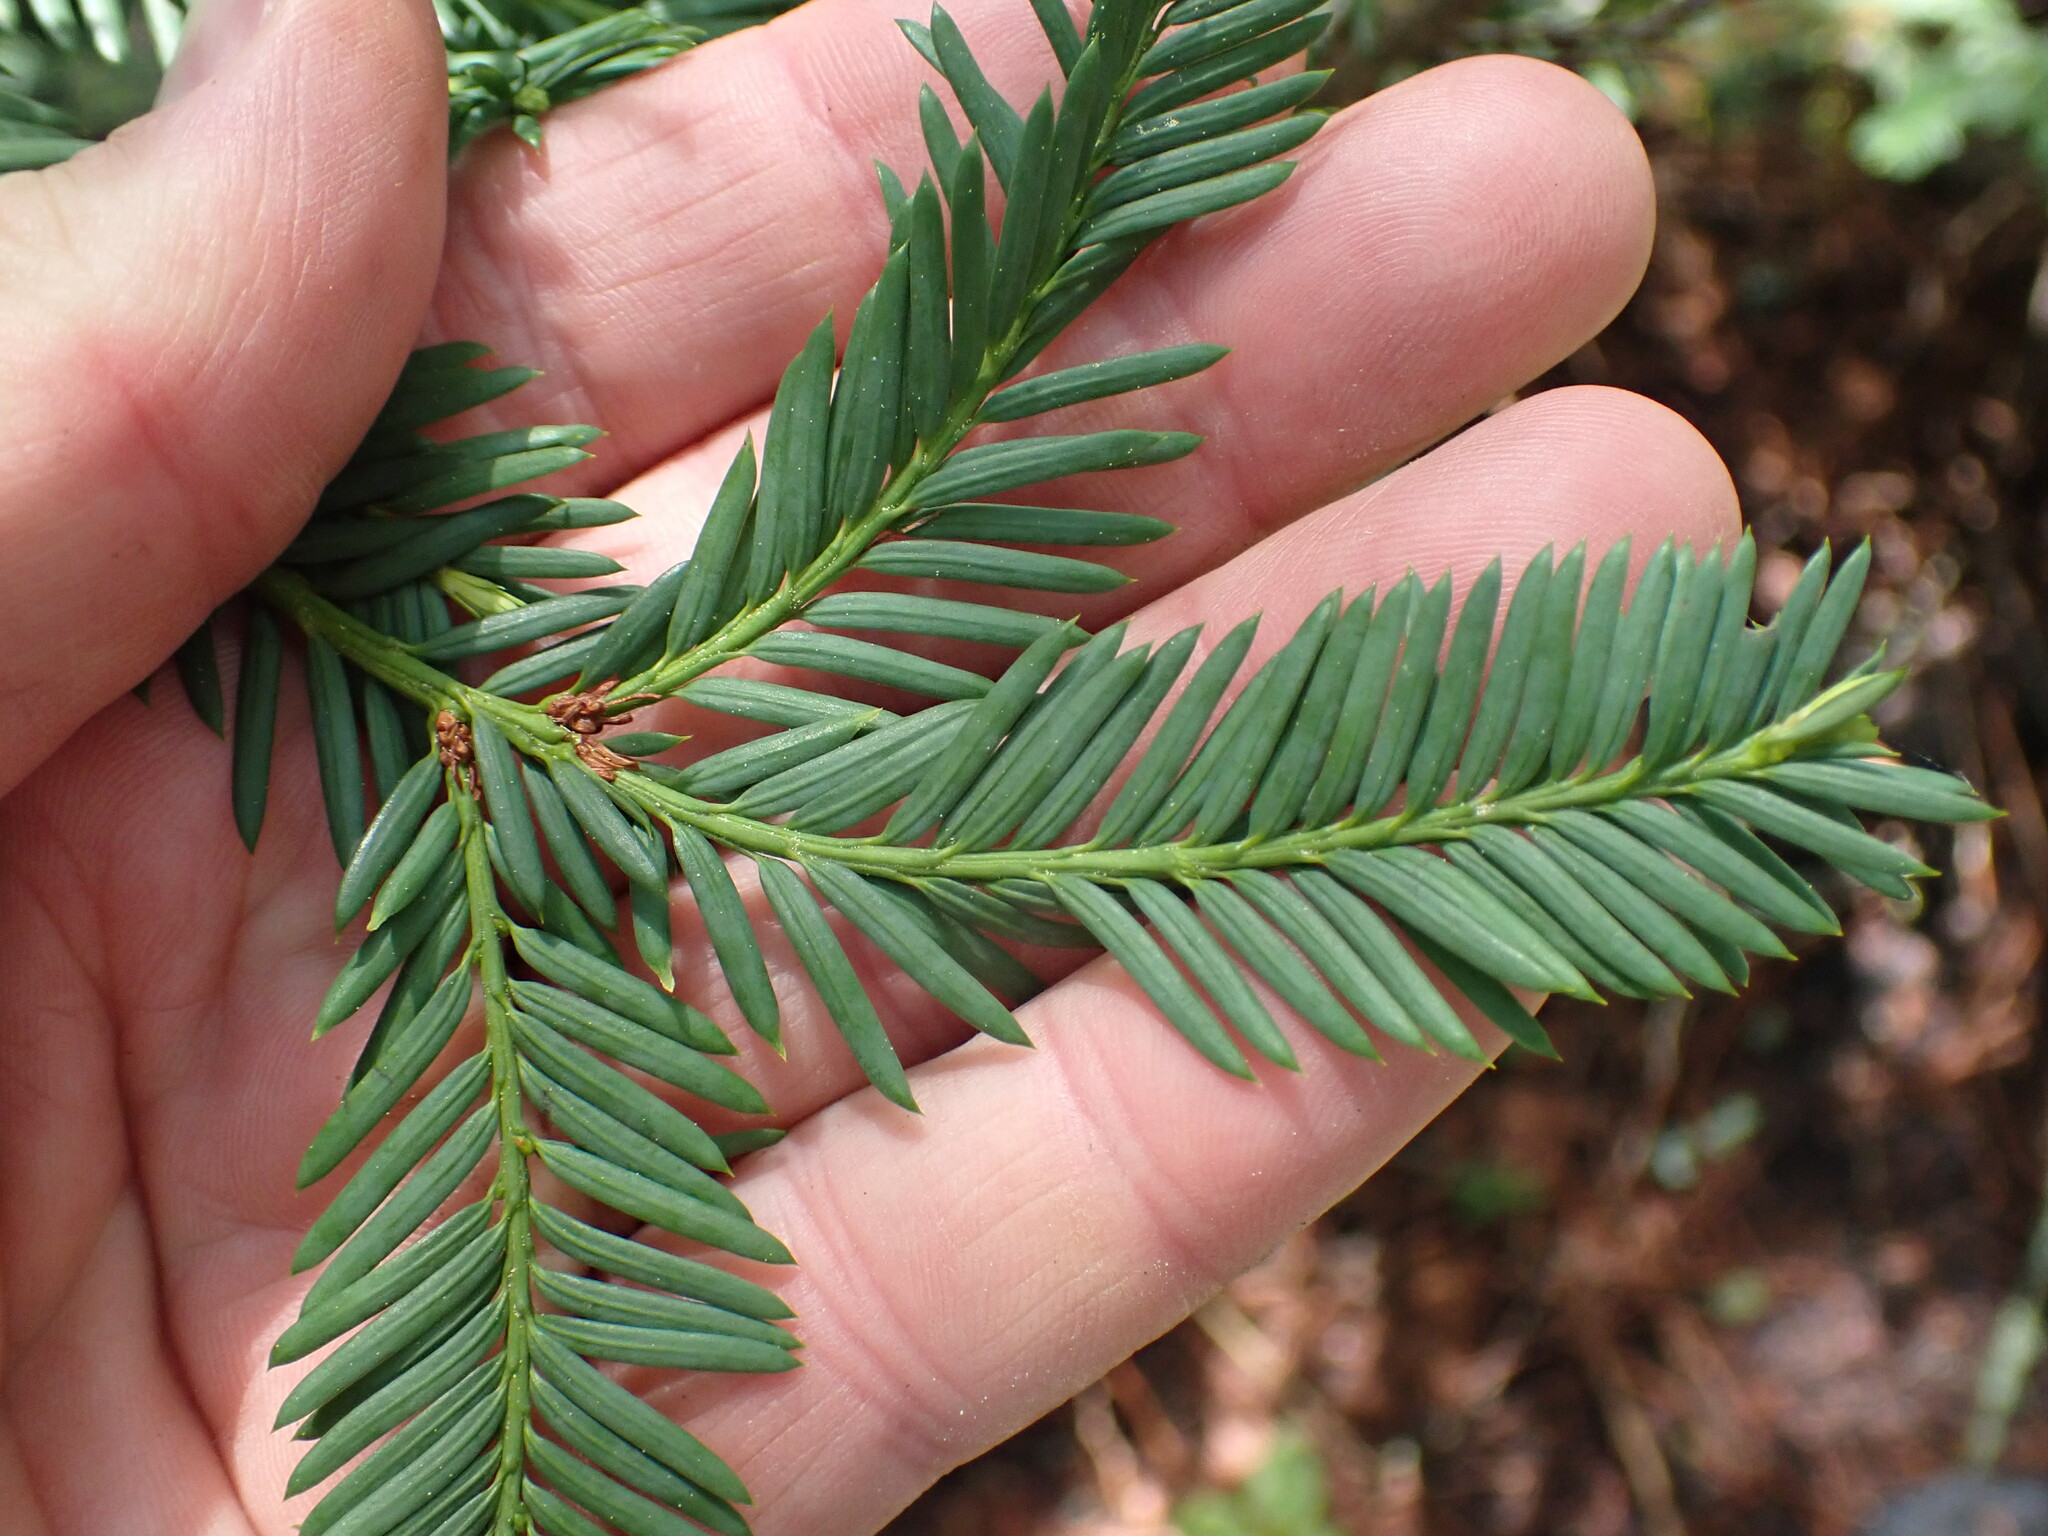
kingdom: Plantae
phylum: Tracheophyta
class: Pinopsida
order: Pinales
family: Taxaceae
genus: Taxus
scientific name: Taxus brevifolia
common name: Pacific yew
